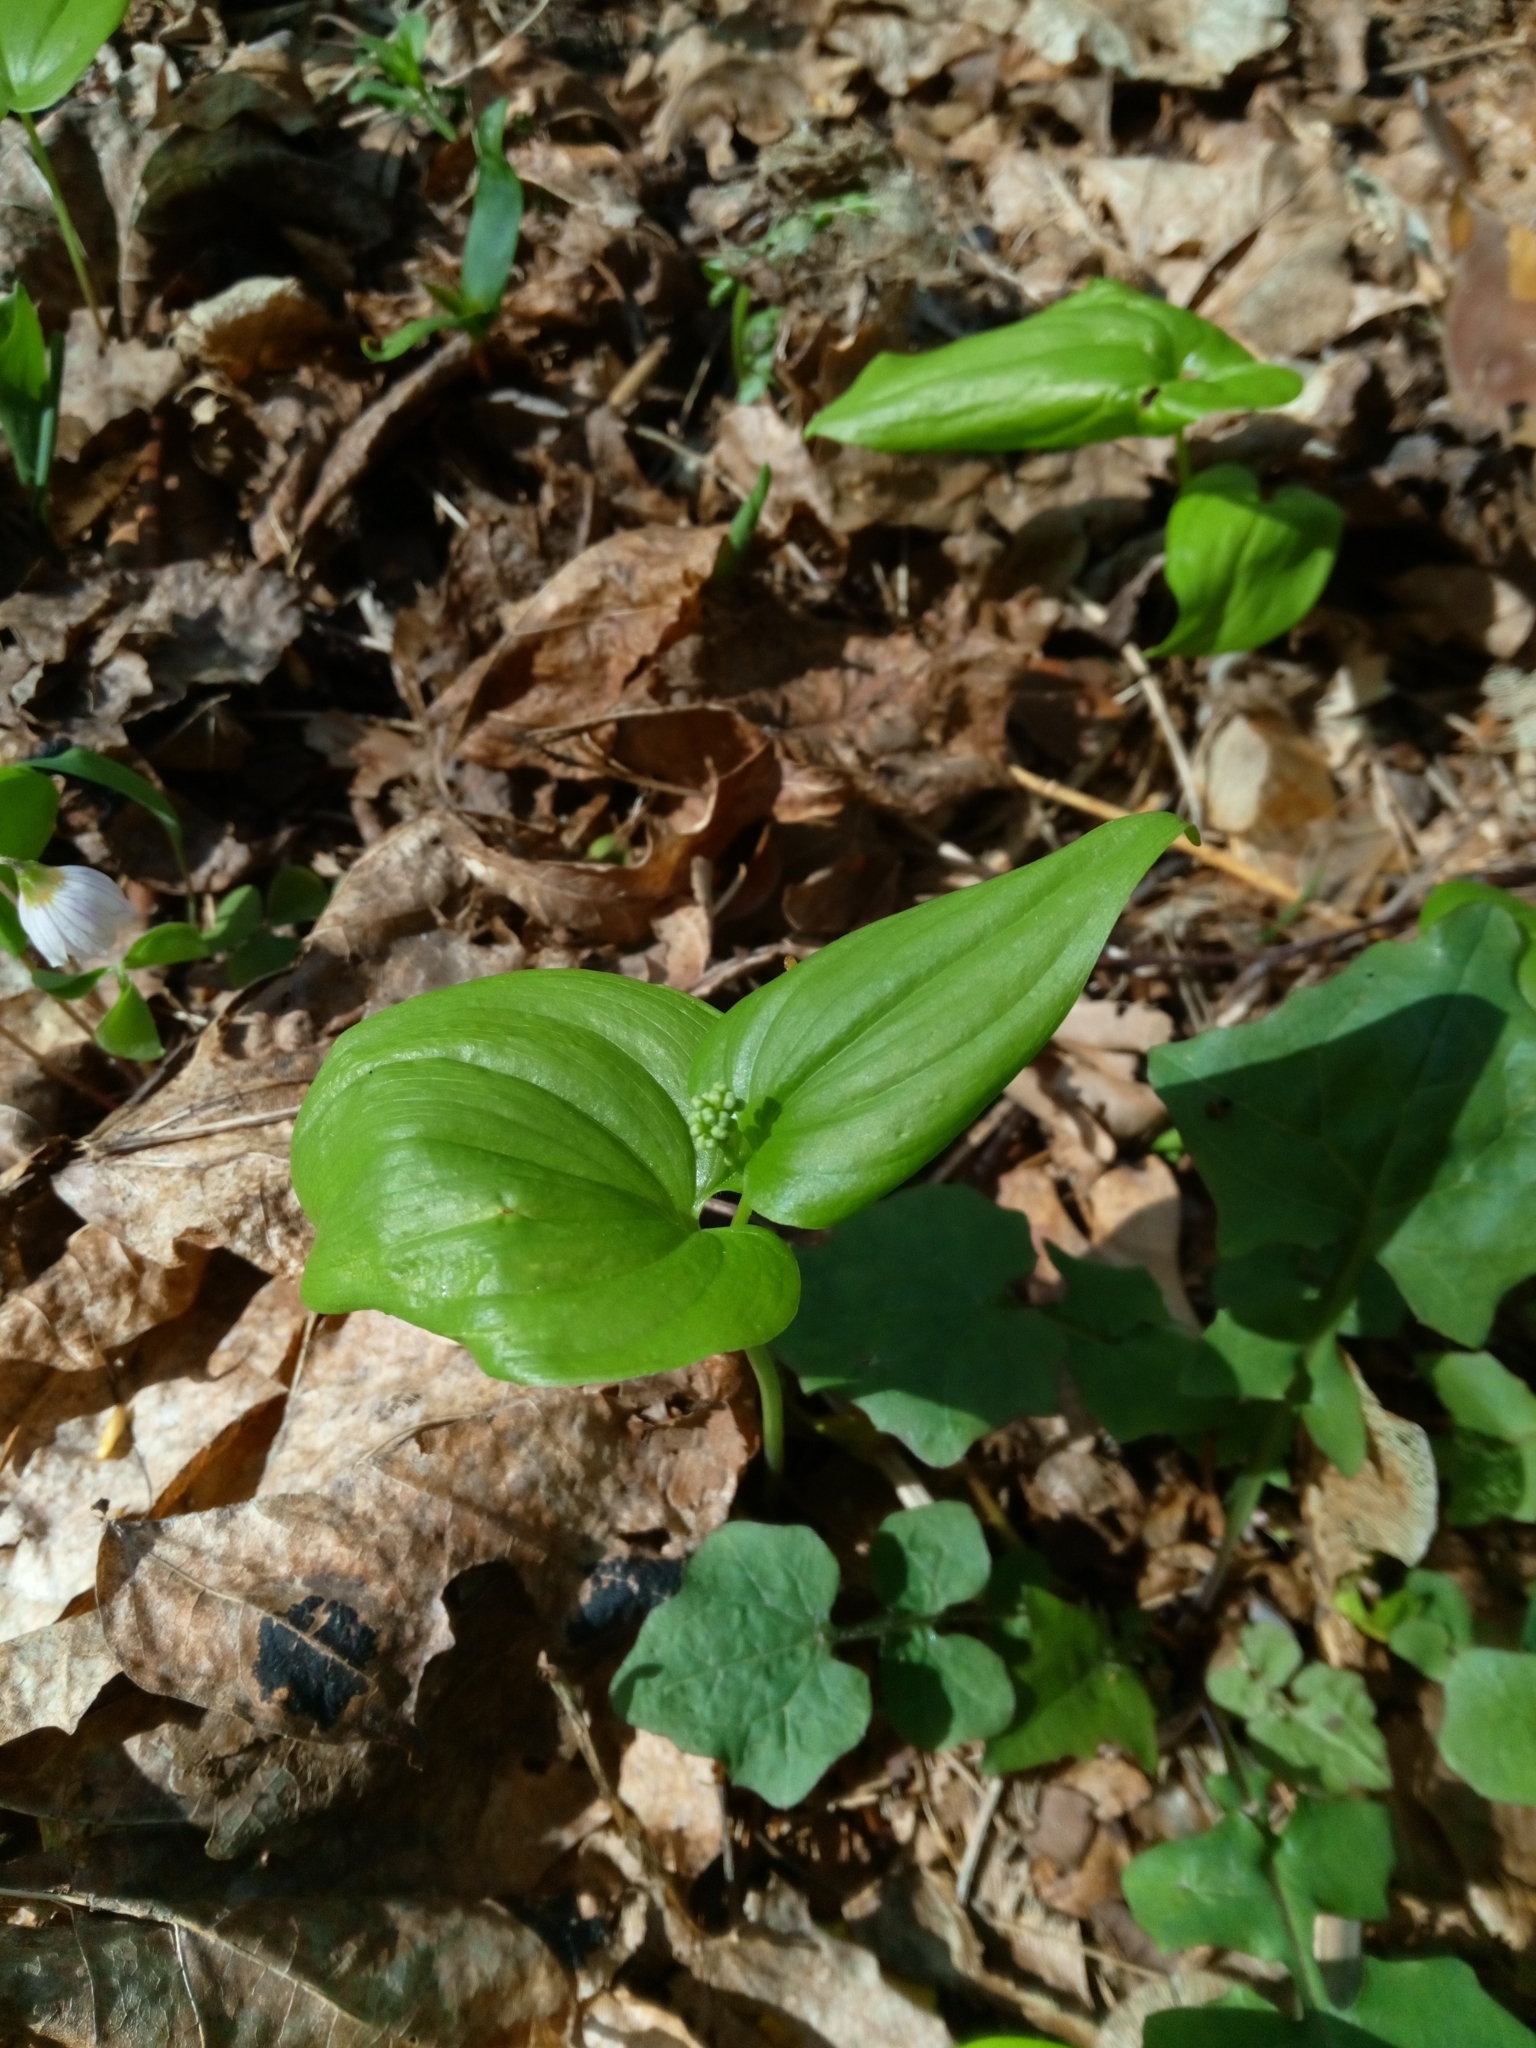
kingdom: Plantae
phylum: Tracheophyta
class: Liliopsida
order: Asparagales
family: Asparagaceae
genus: Maianthemum
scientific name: Maianthemum bifolium
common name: May lily
